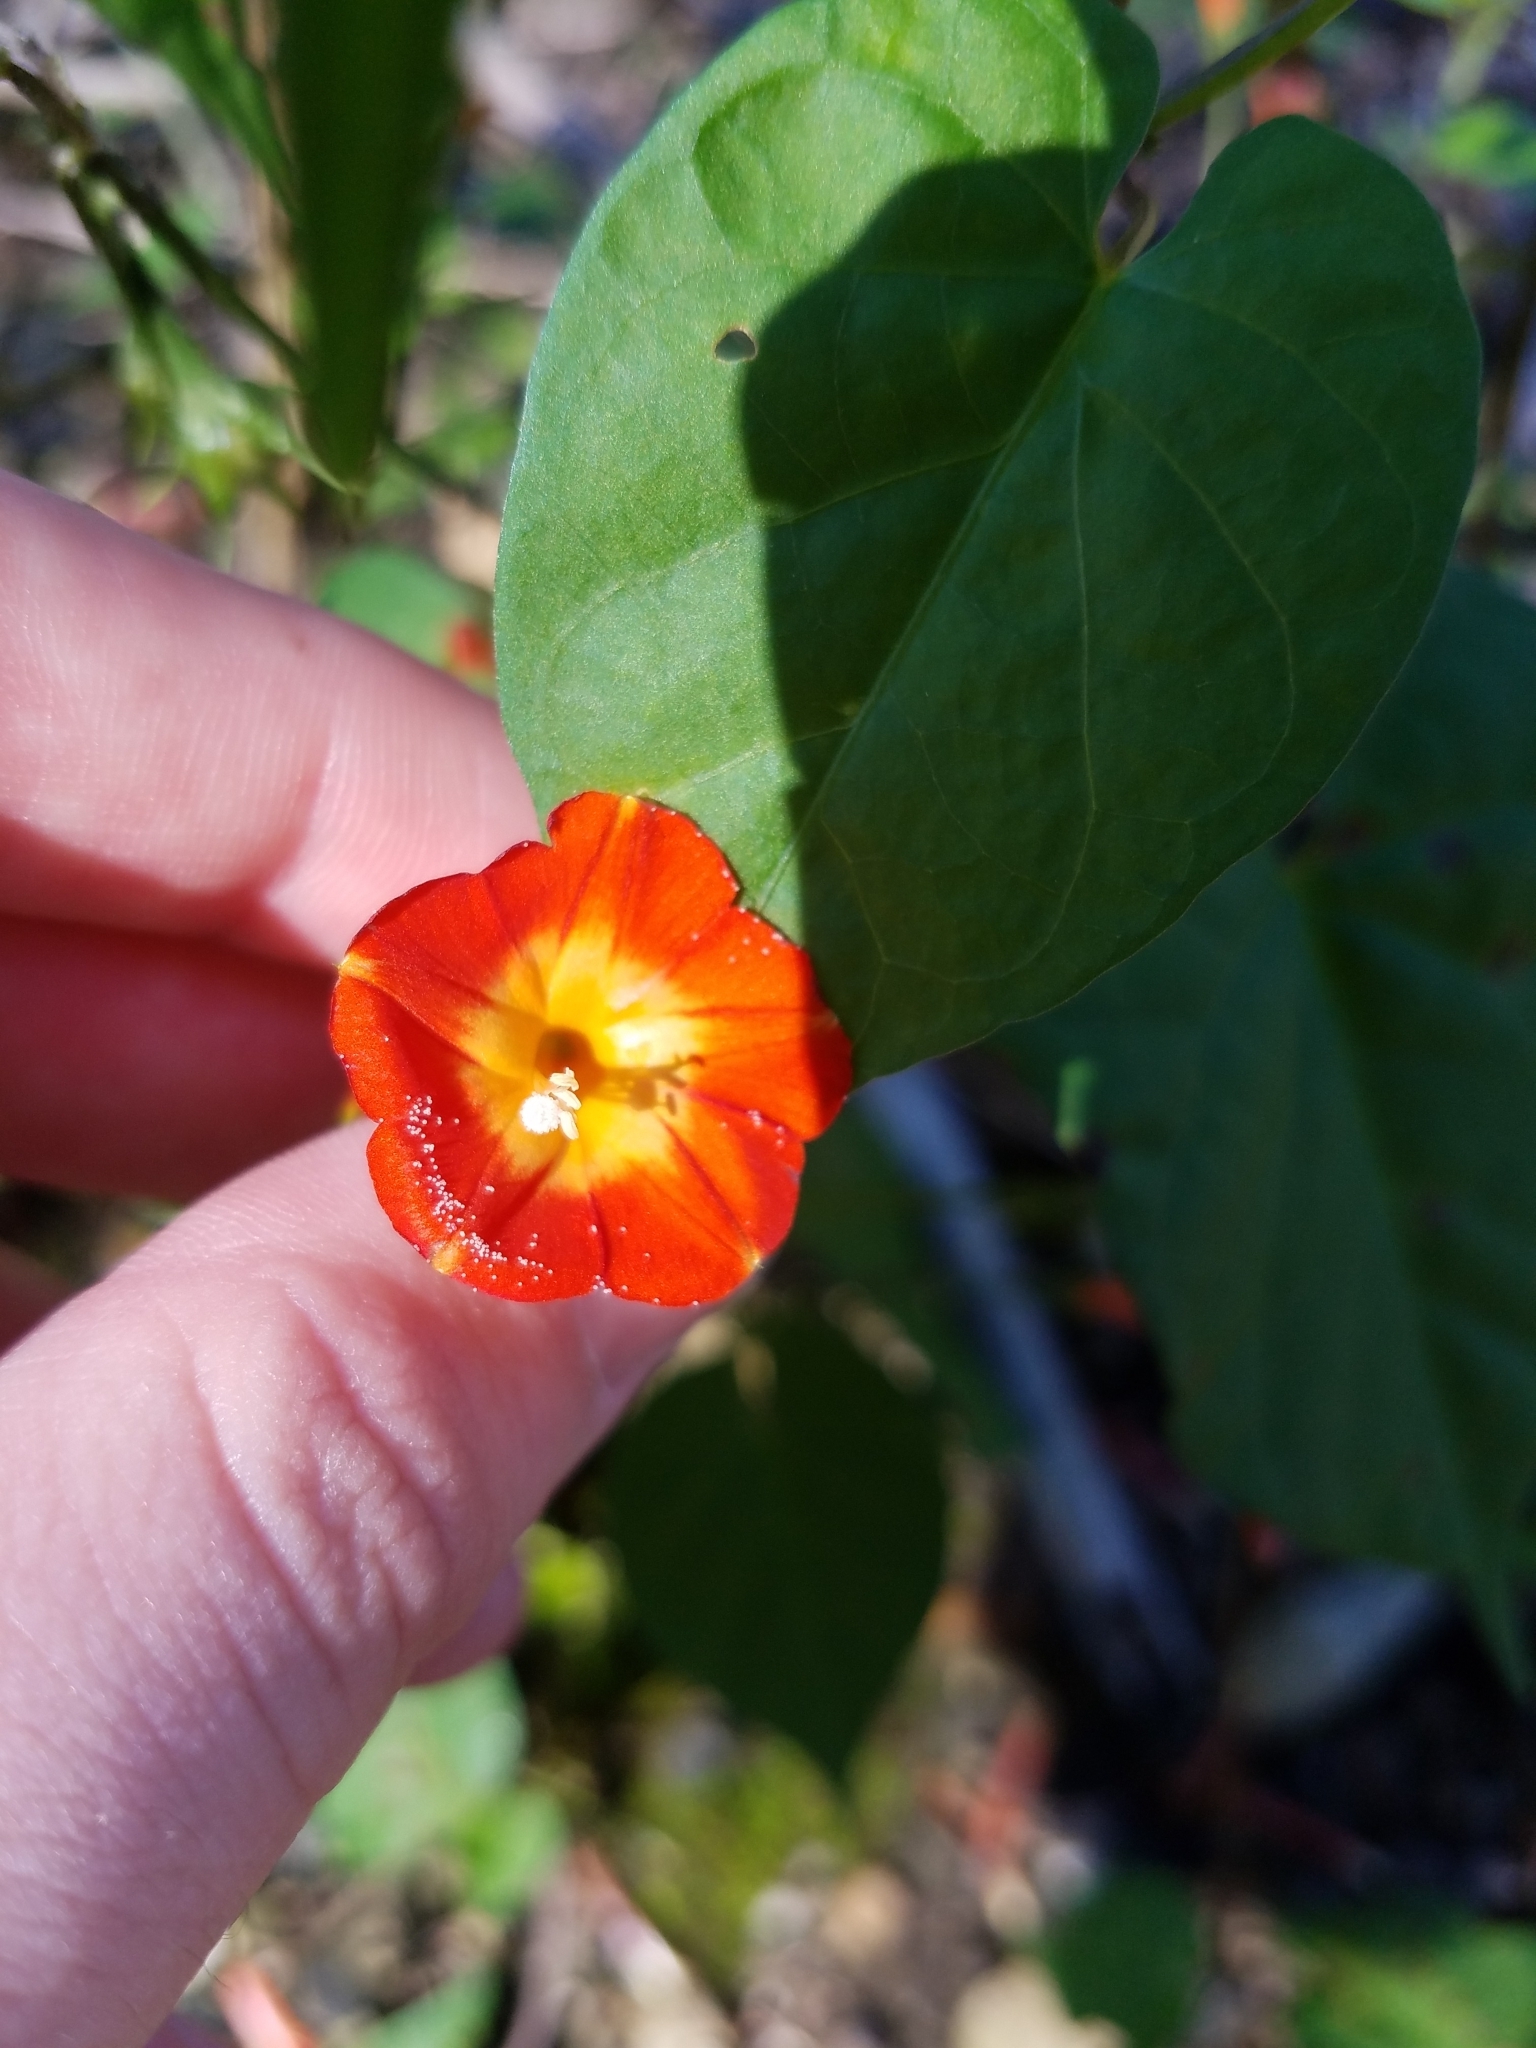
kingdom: Plantae
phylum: Tracheophyta
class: Magnoliopsida
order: Solanales
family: Convolvulaceae
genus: Ipomoea
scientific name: Ipomoea coccinea
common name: Red morning-glory
